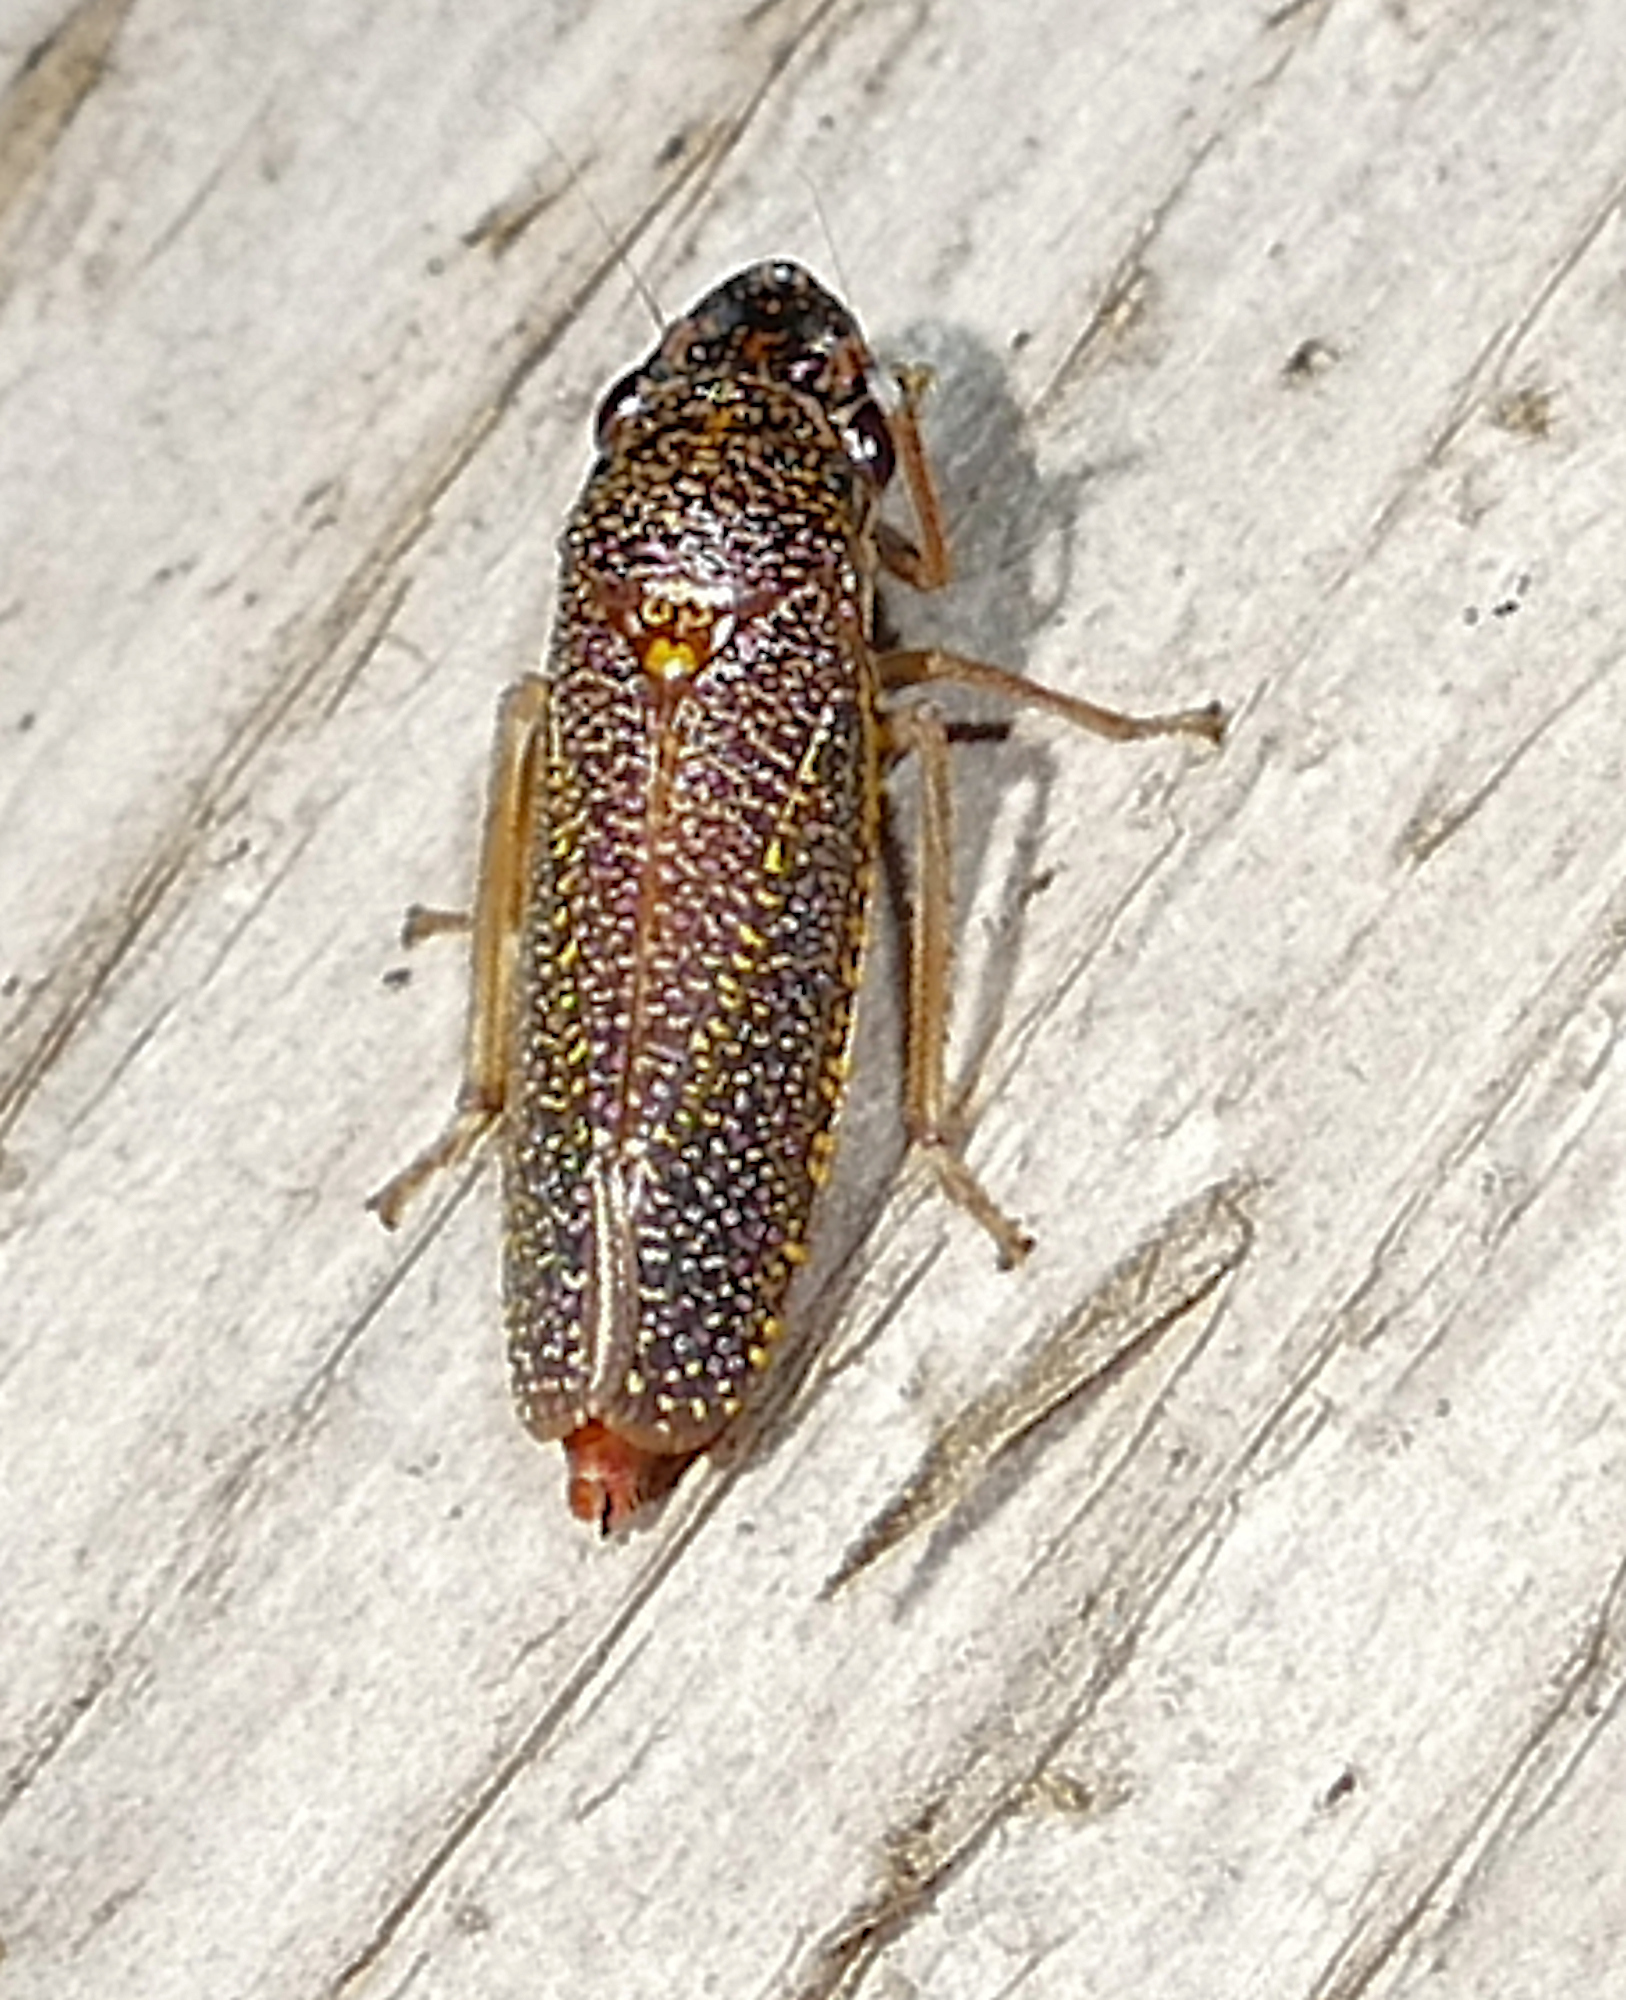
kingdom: Animalia
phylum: Arthropoda
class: Insecta
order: Hemiptera
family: Cicadellidae
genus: Paraulacizes
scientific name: Paraulacizes irrorata
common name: Speckled sharpshooter
